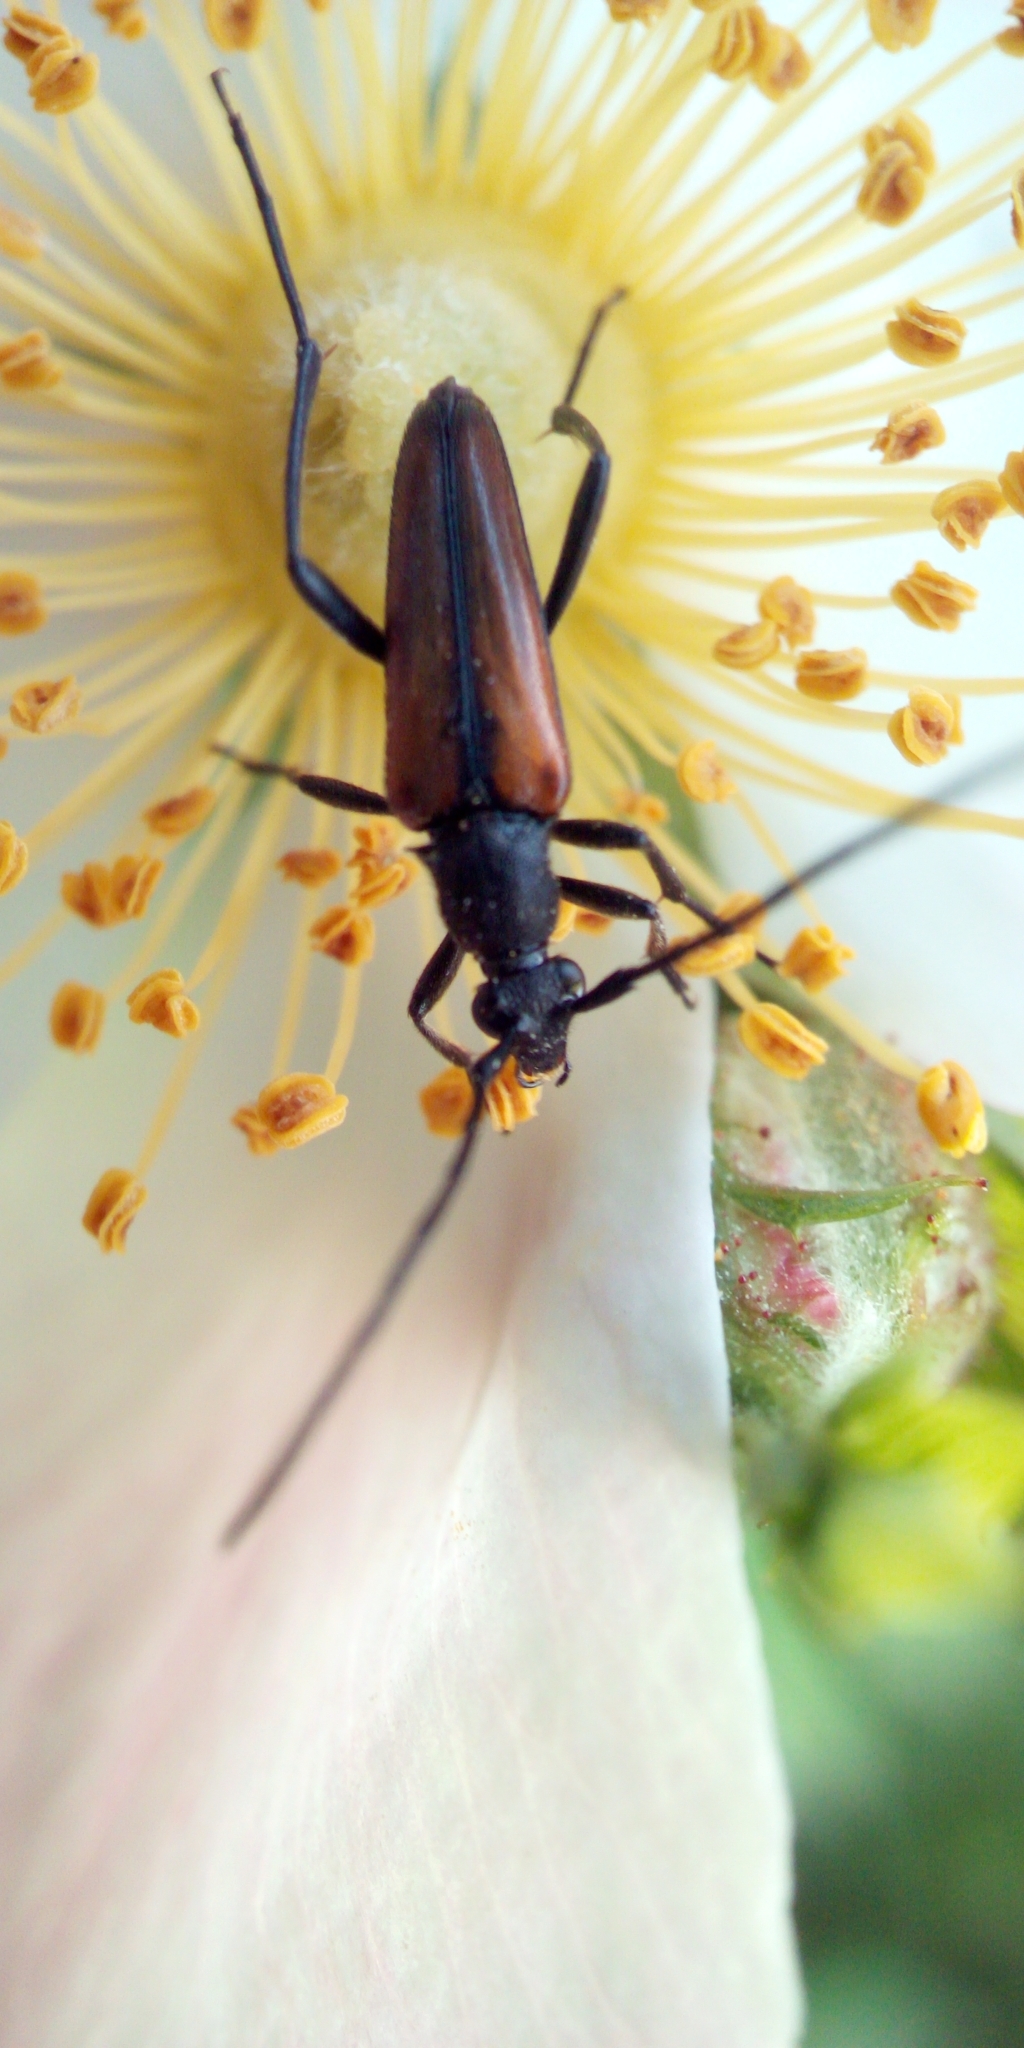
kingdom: Animalia
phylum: Arthropoda
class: Insecta
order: Coleoptera
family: Cerambycidae
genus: Stenurella
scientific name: Stenurella
